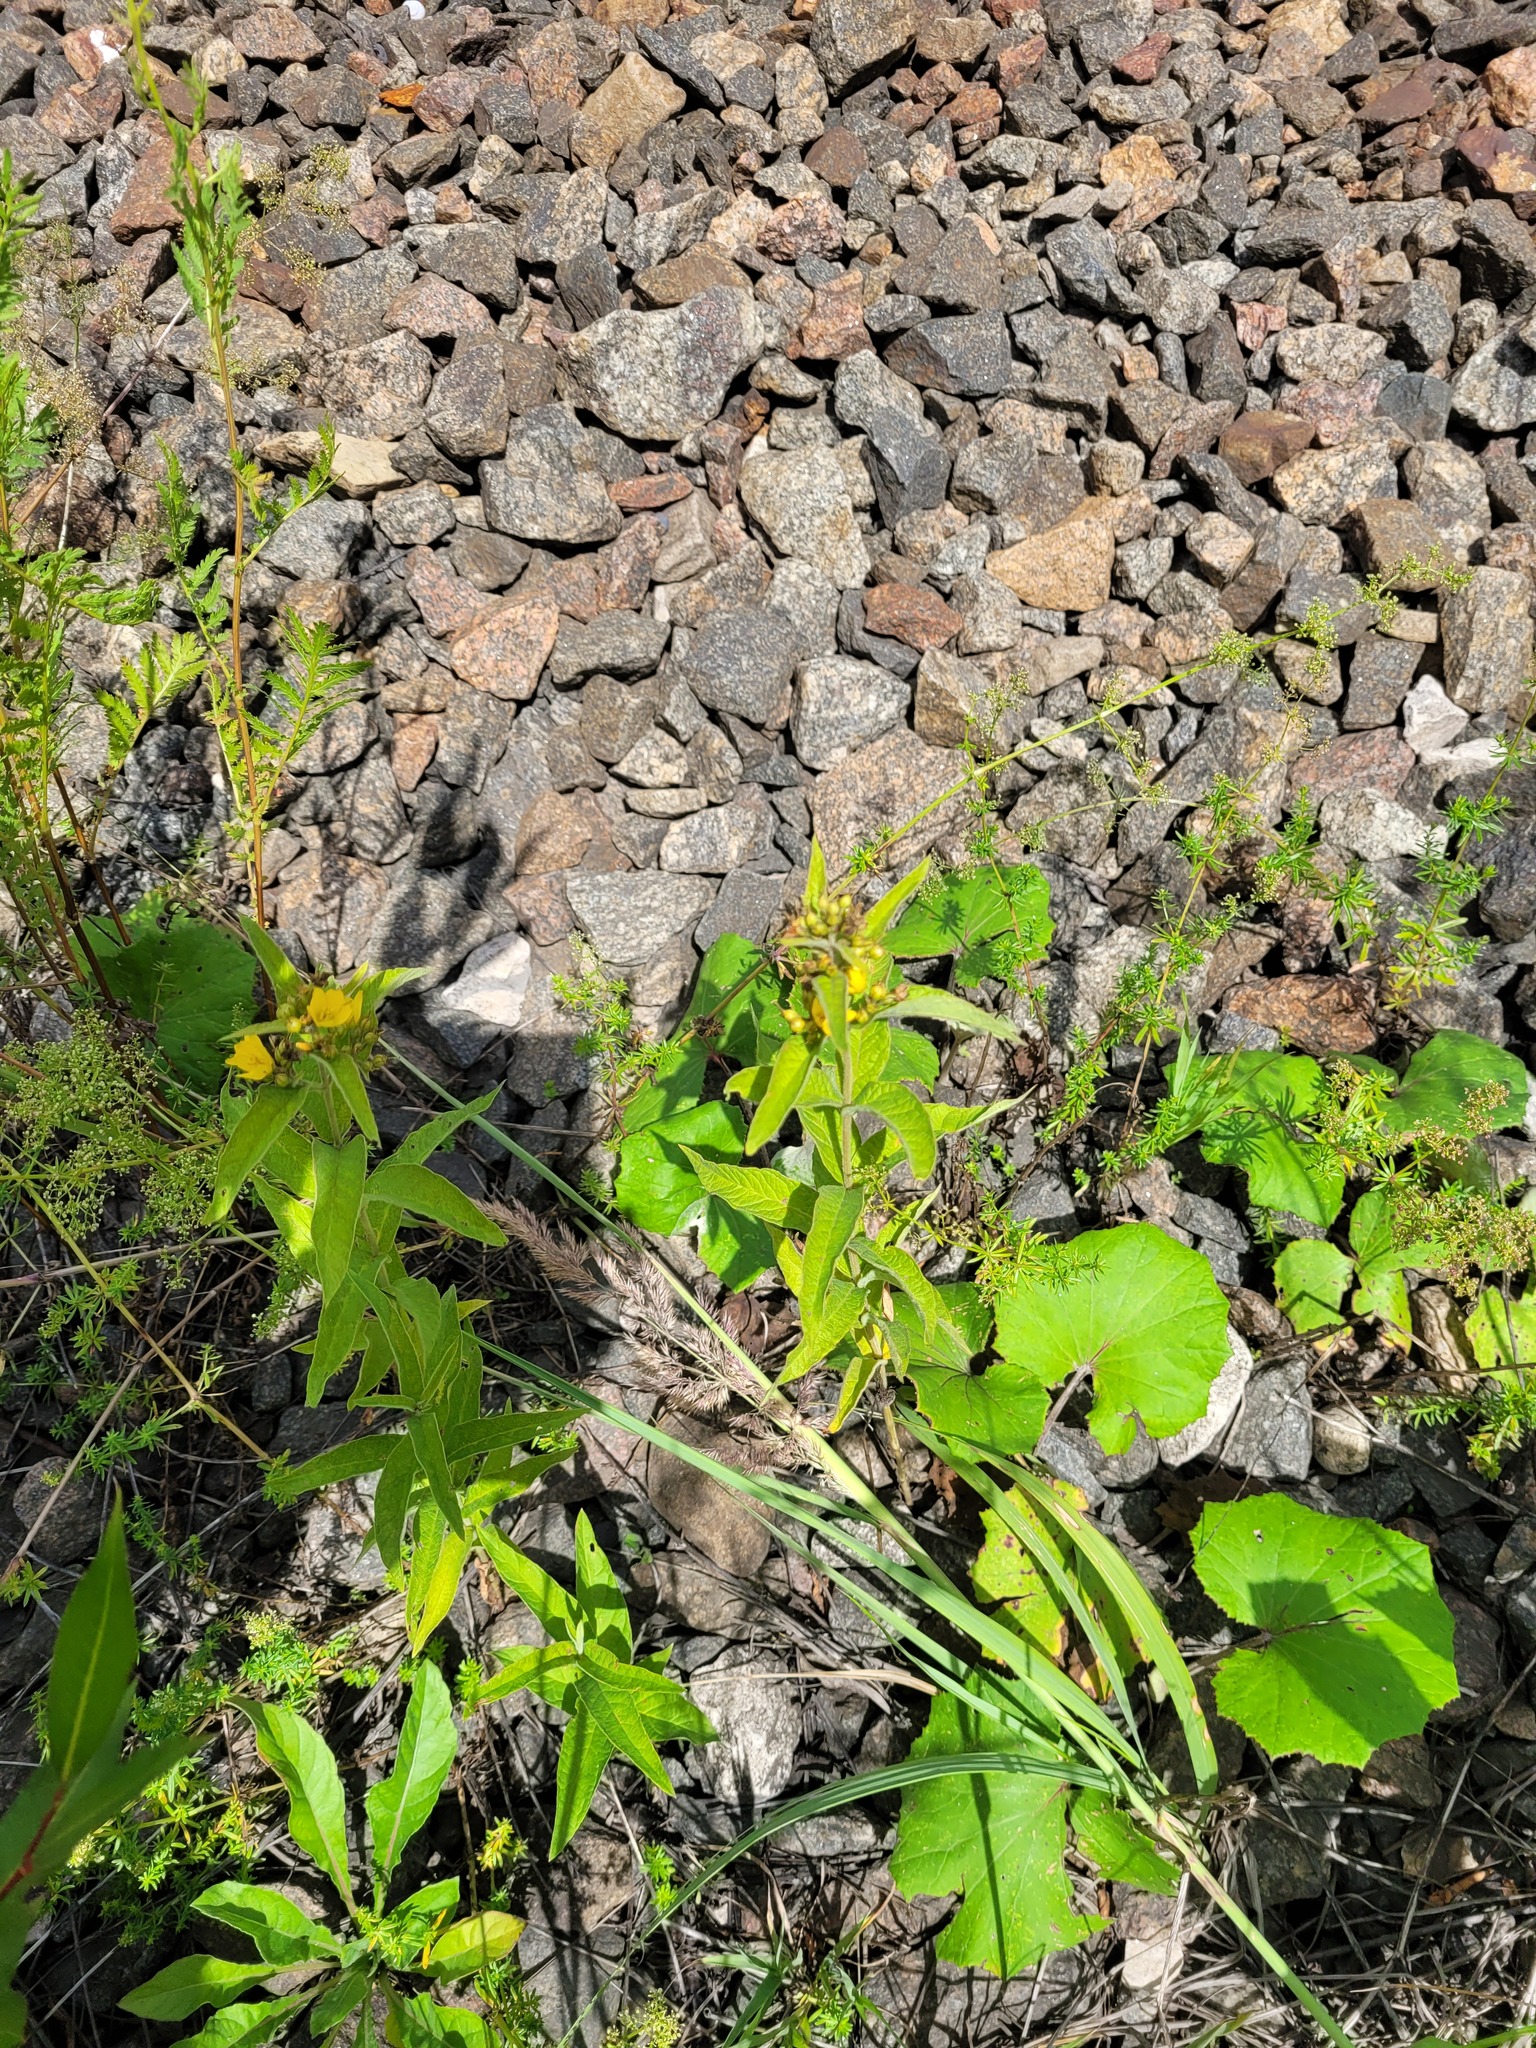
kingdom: Plantae
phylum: Tracheophyta
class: Magnoliopsida
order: Ericales
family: Primulaceae
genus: Lysimachia
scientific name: Lysimachia vulgaris
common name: Yellow loosestrife
